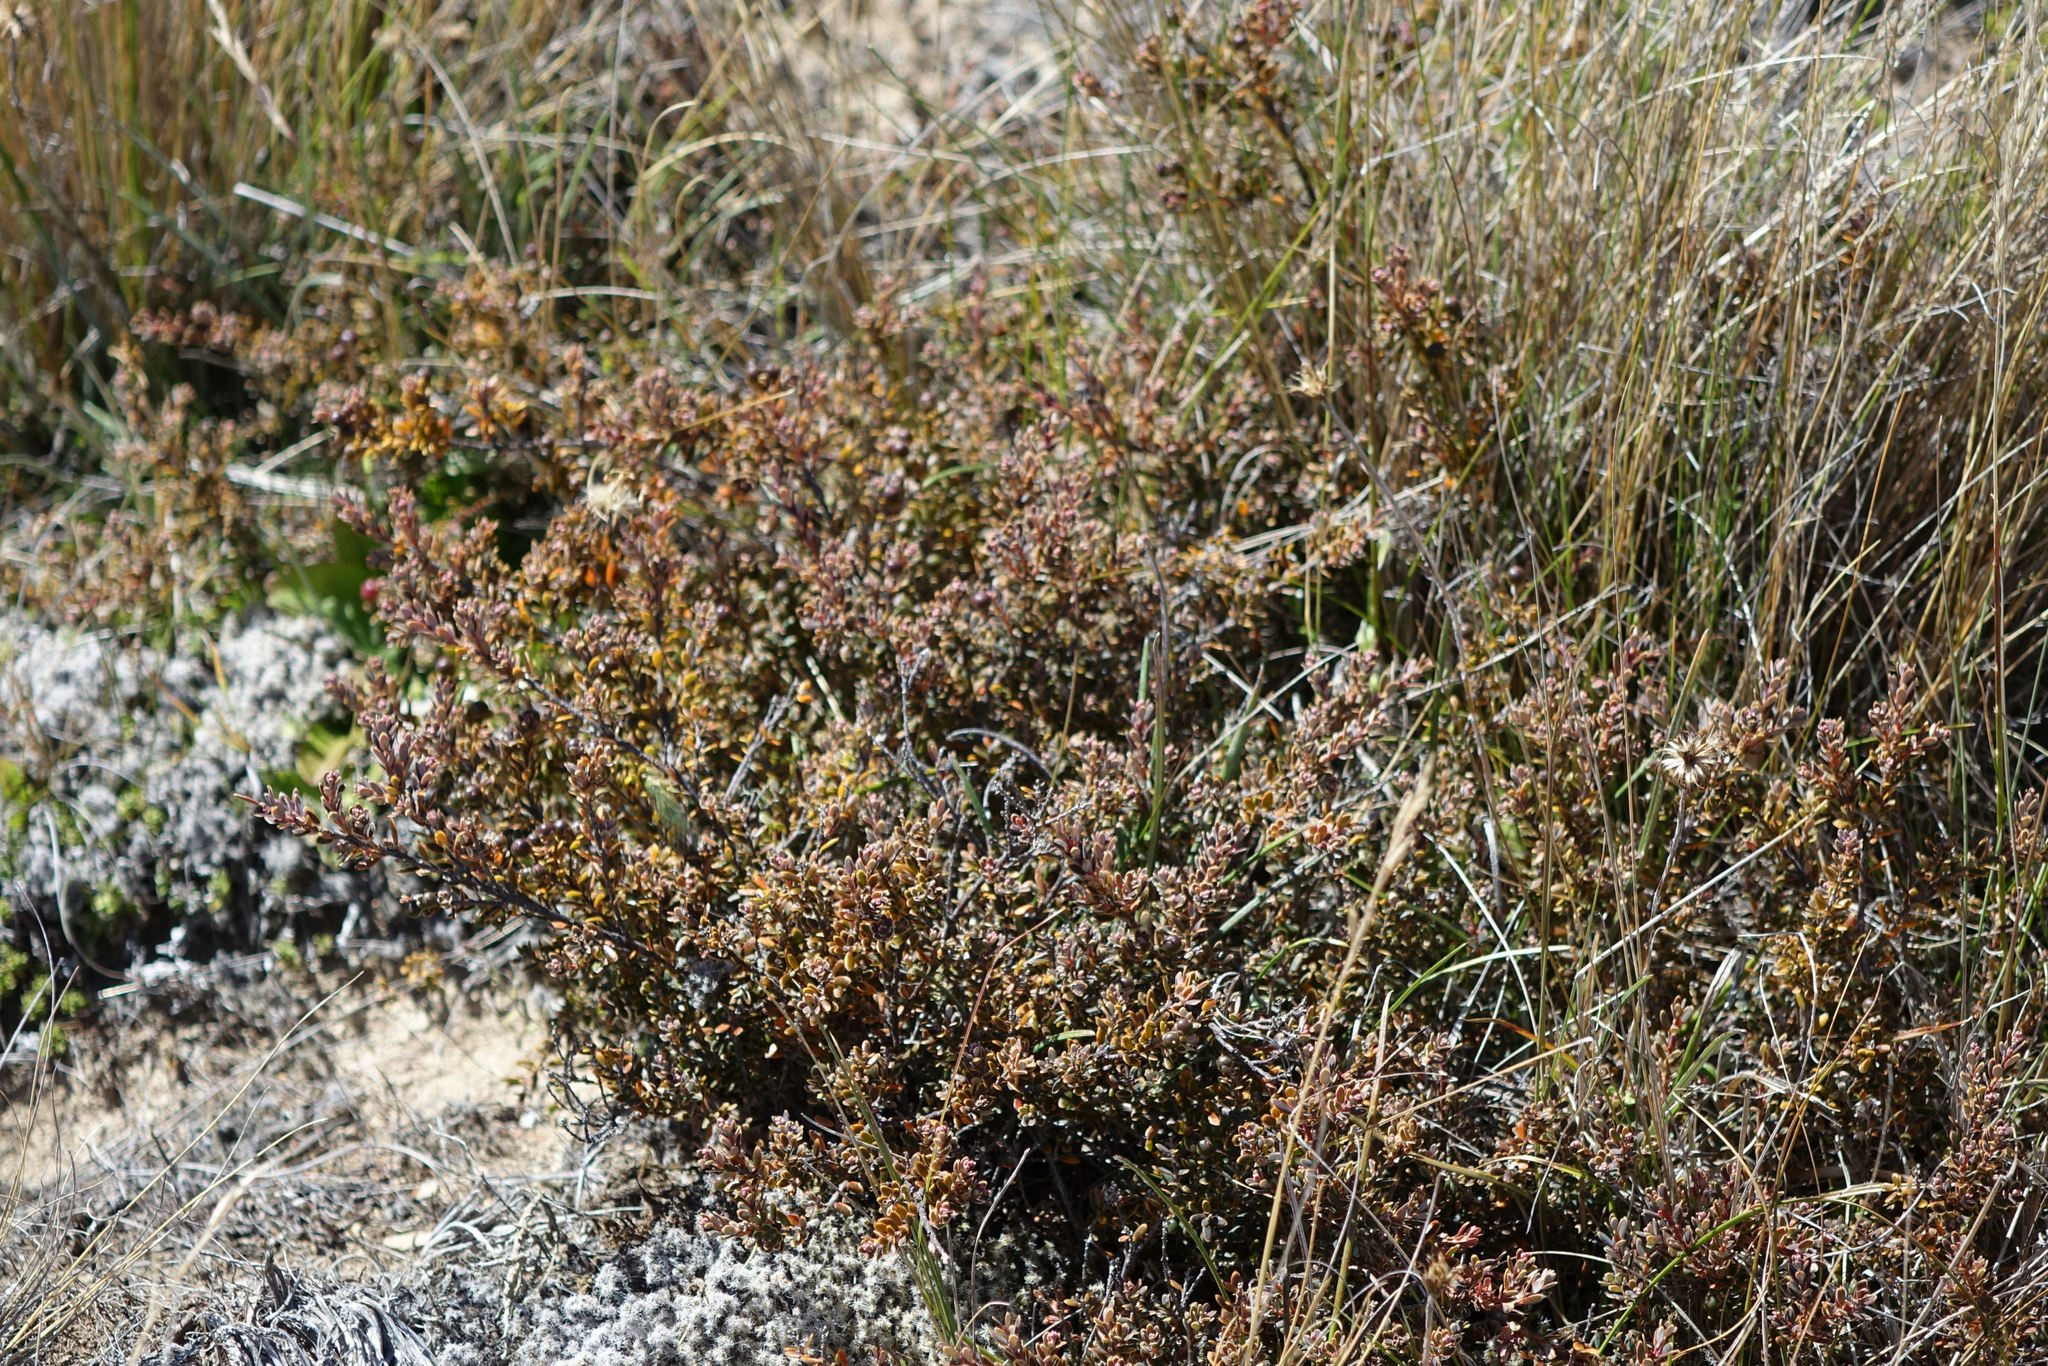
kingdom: Plantae
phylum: Tracheophyta
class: Magnoliopsida
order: Ericales
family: Ericaceae
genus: Acrothamnus
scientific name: Acrothamnus colensoi
